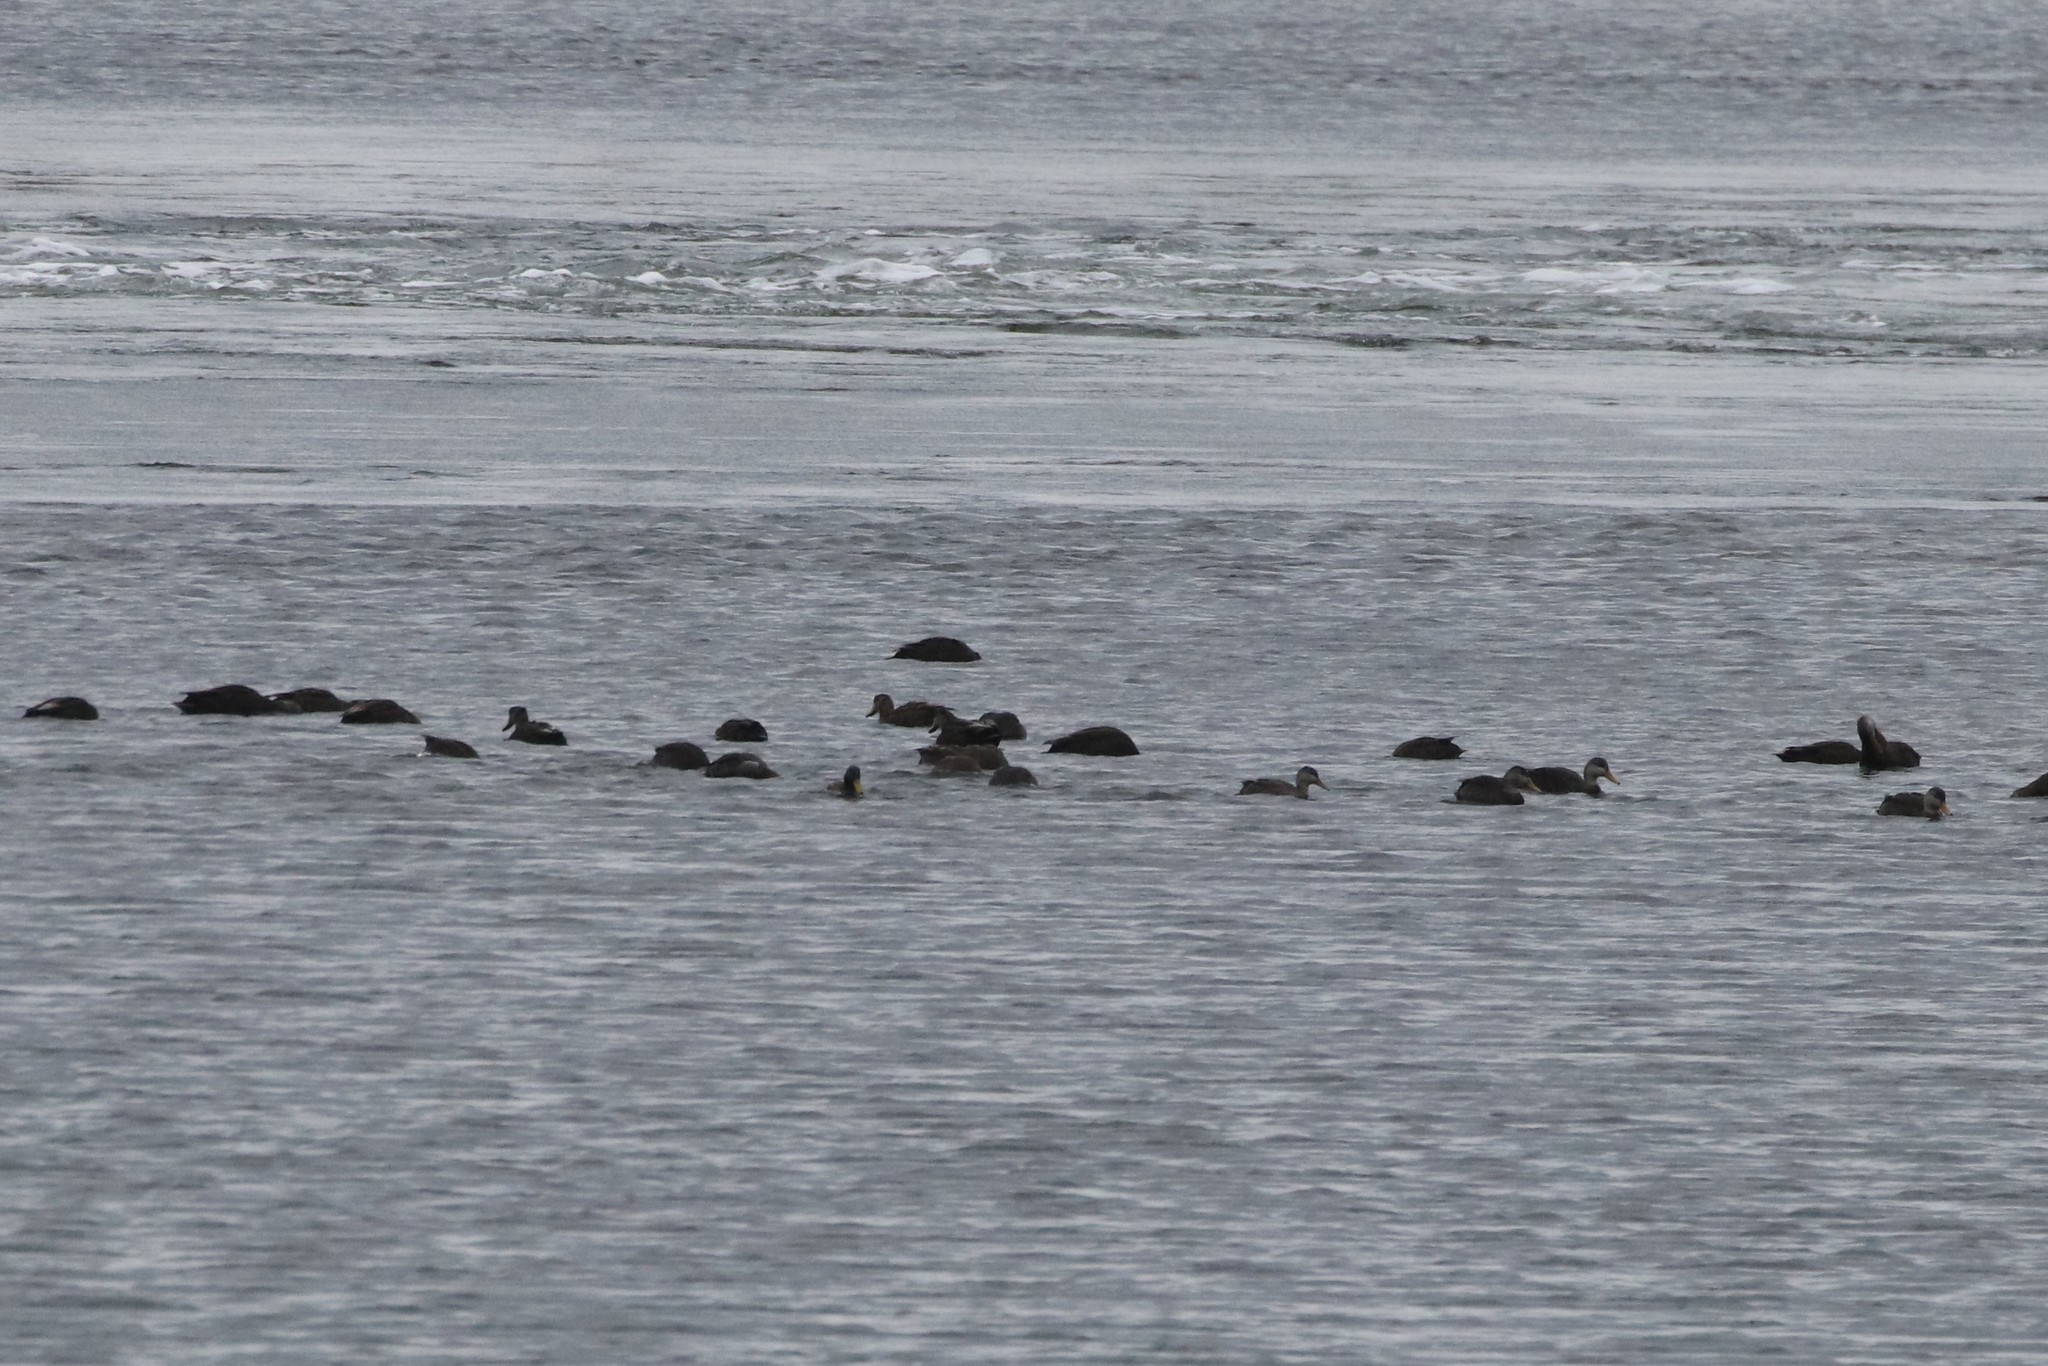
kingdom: Animalia
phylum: Chordata
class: Aves
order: Anseriformes
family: Anatidae
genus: Anas
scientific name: Anas rubripes
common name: American black duck
